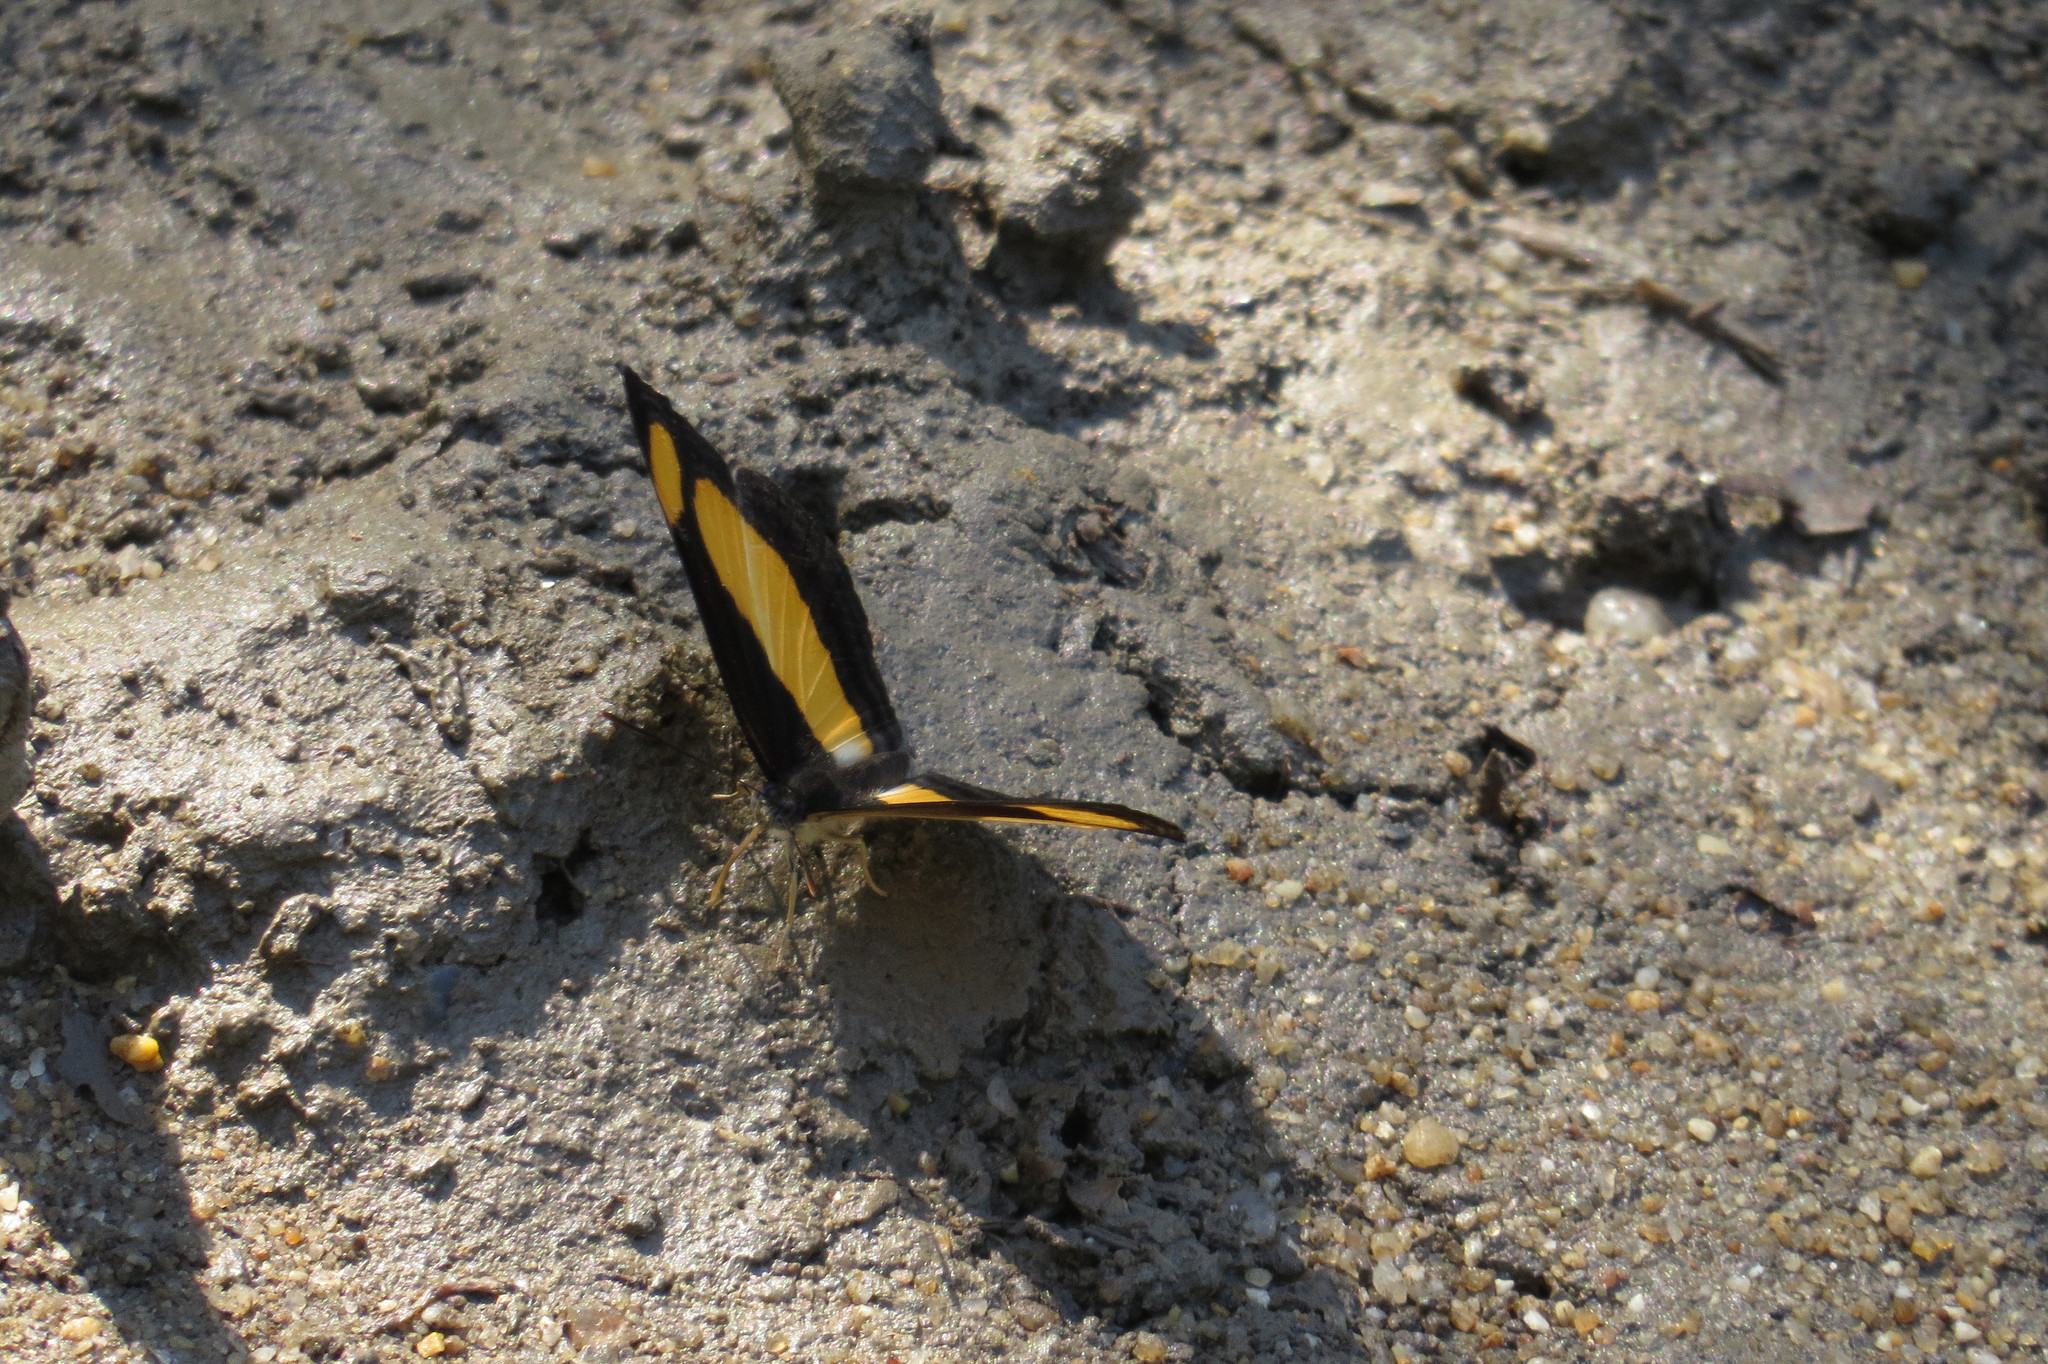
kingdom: Animalia
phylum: Arthropoda
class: Insecta
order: Lepidoptera
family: Nymphalidae
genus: Pantoporia
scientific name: Pantoporia consimilis
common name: Orange plane
